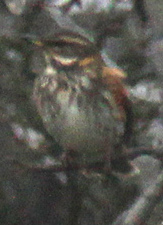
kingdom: Animalia
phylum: Chordata
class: Aves
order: Passeriformes
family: Turdidae
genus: Turdus
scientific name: Turdus iliacus
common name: Redwing
